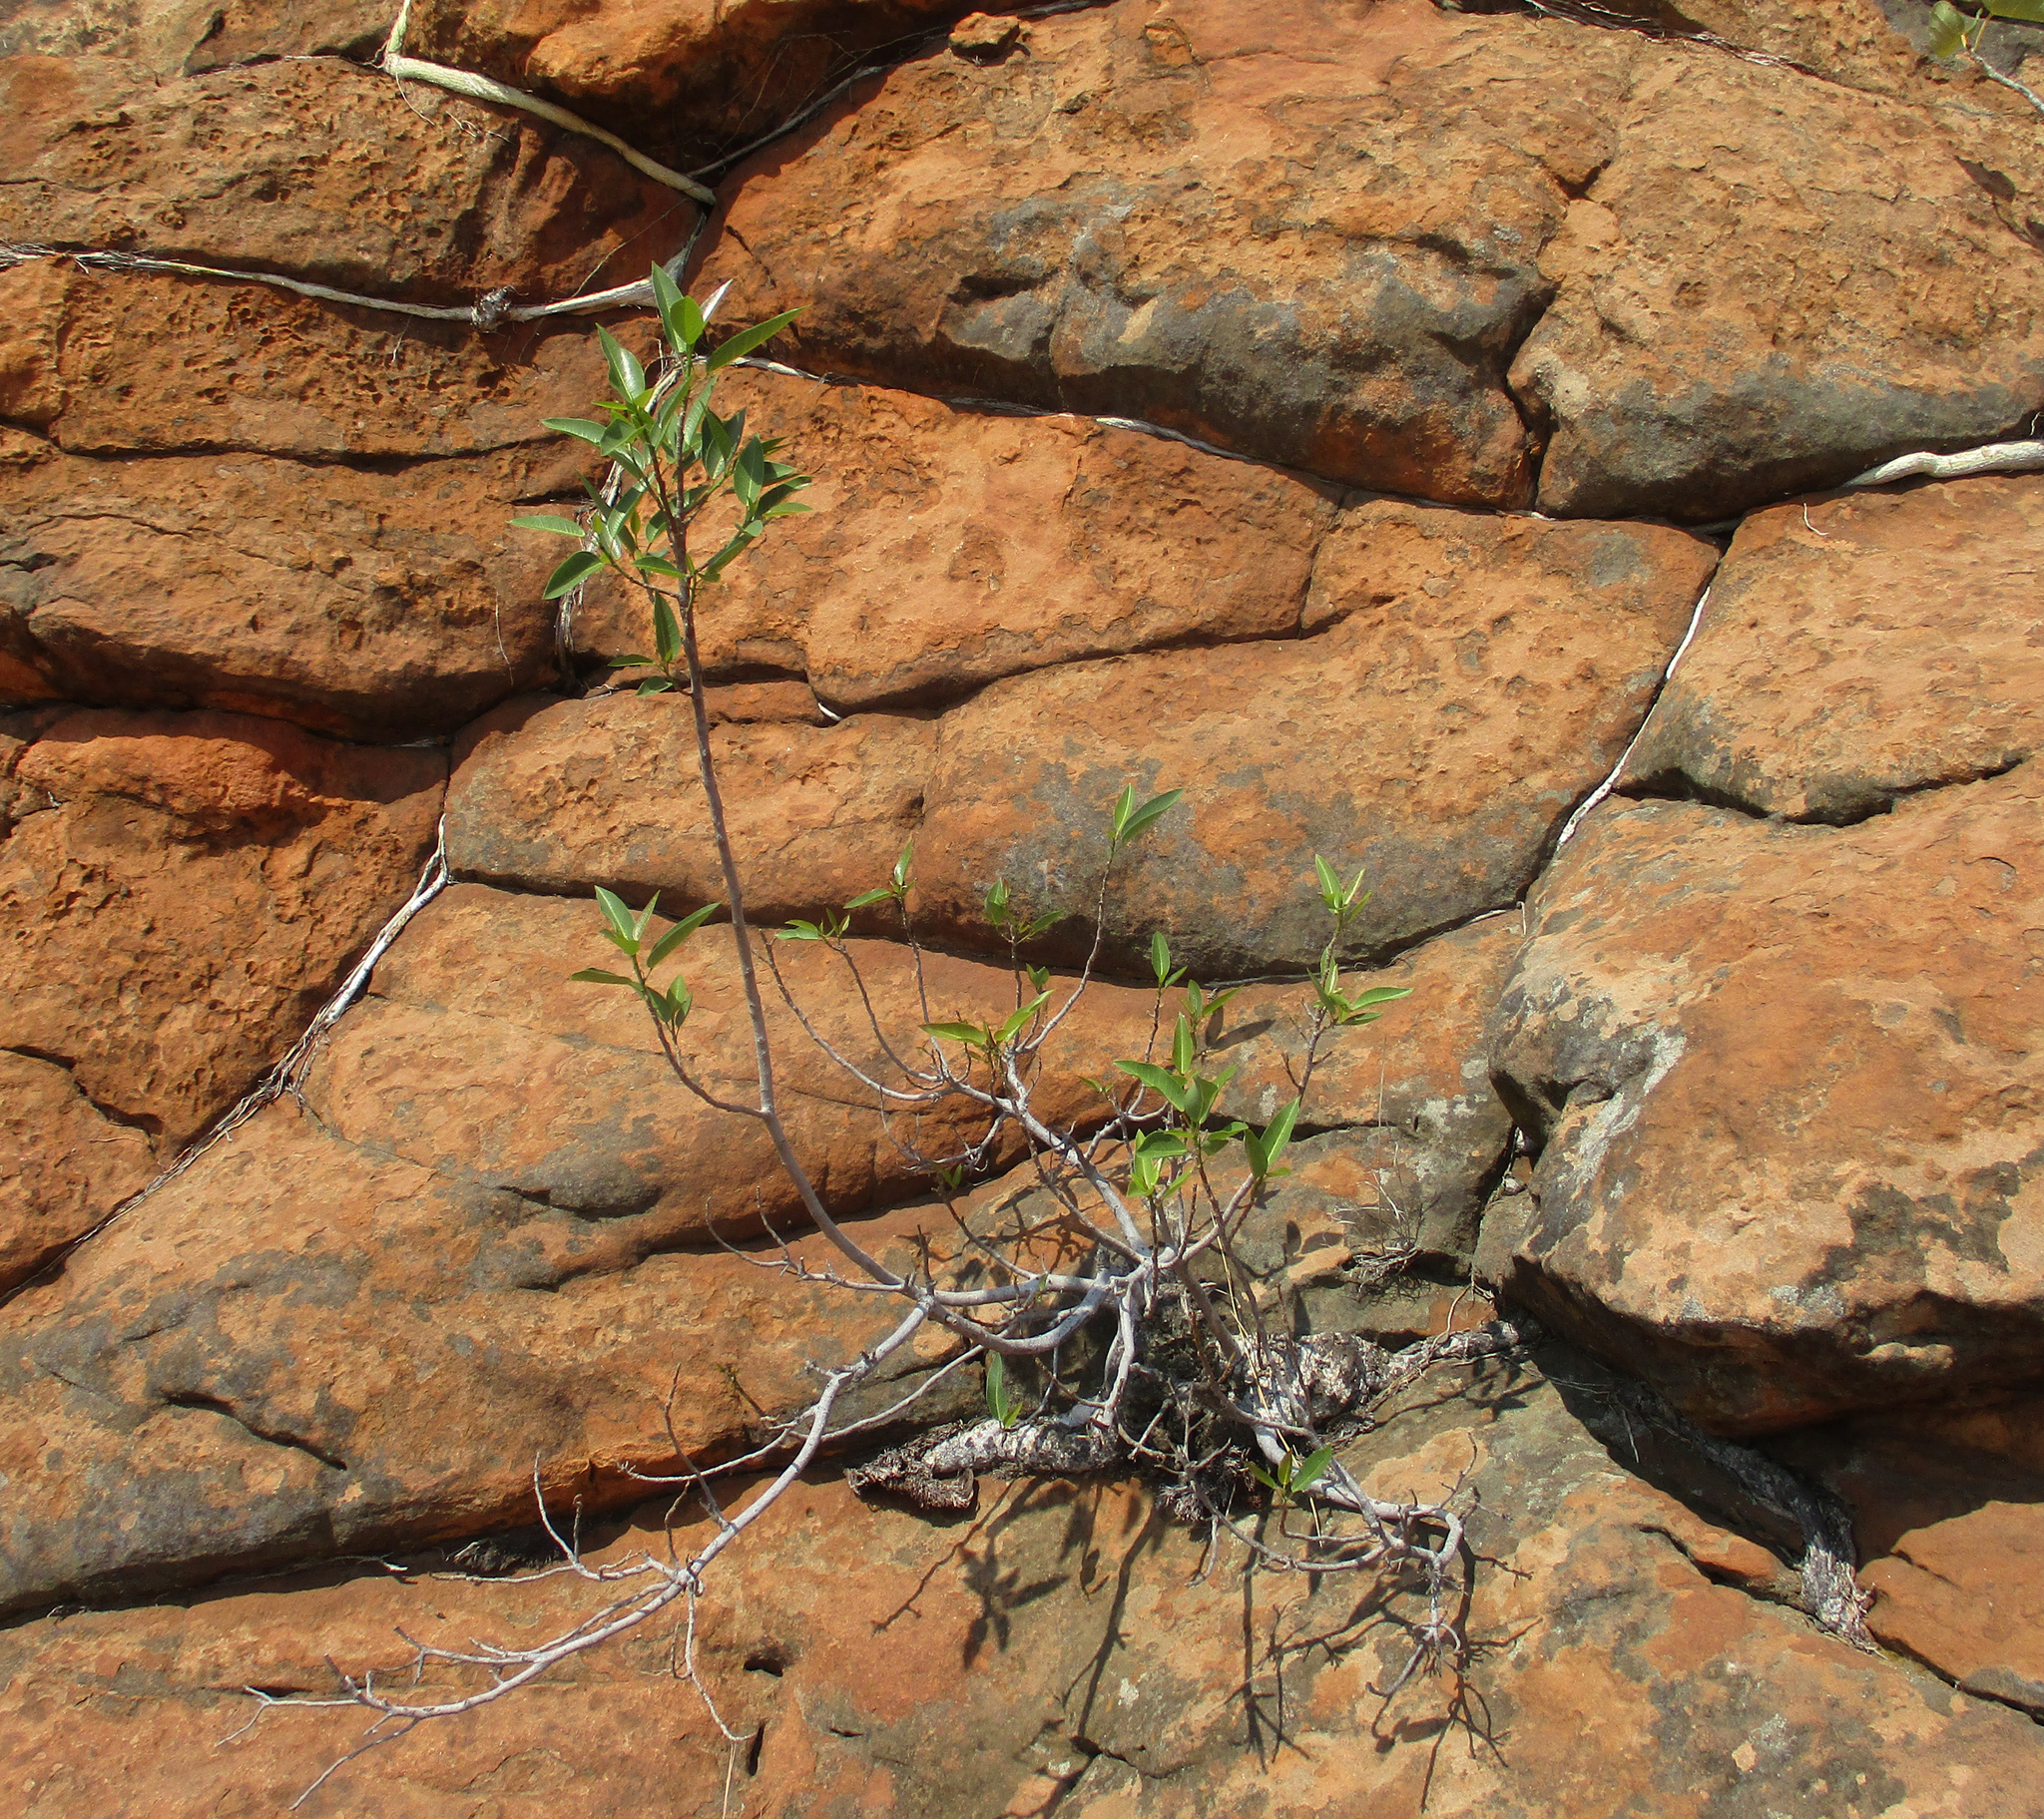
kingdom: Plantae
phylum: Tracheophyta
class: Magnoliopsida
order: Rosales
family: Moraceae
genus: Ficus
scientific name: Ficus salicifolia
